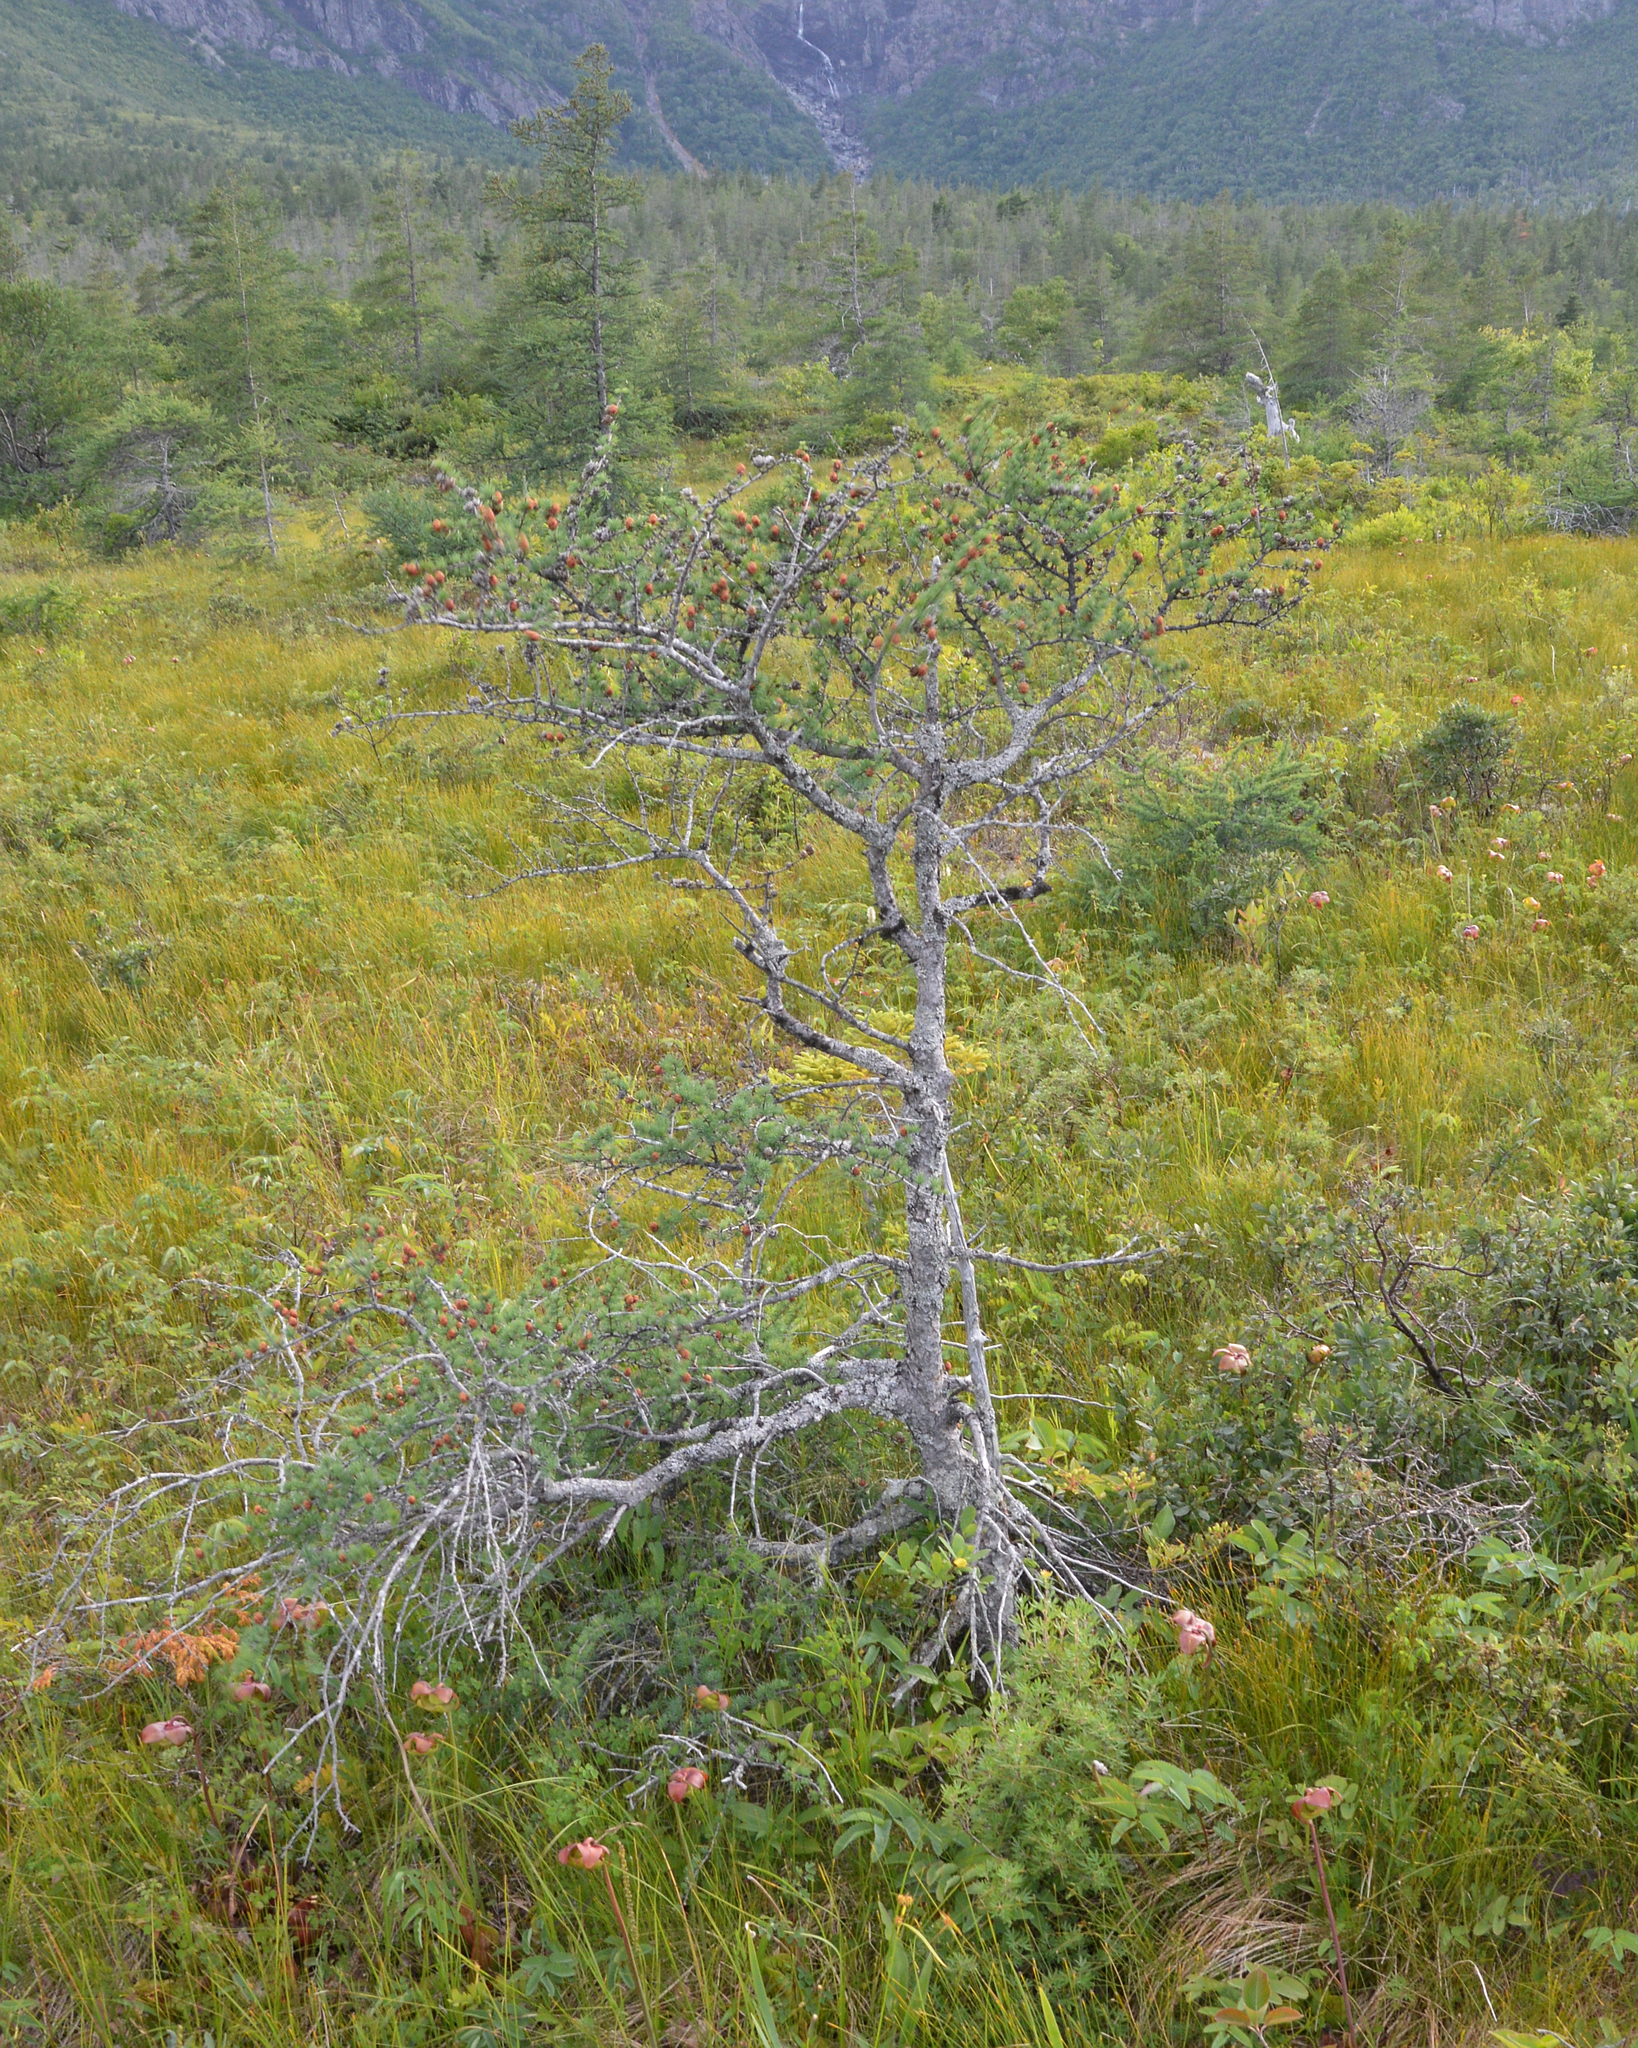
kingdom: Plantae
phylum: Tracheophyta
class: Pinopsida
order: Pinales
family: Pinaceae
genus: Larix
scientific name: Larix laricina
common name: American larch
